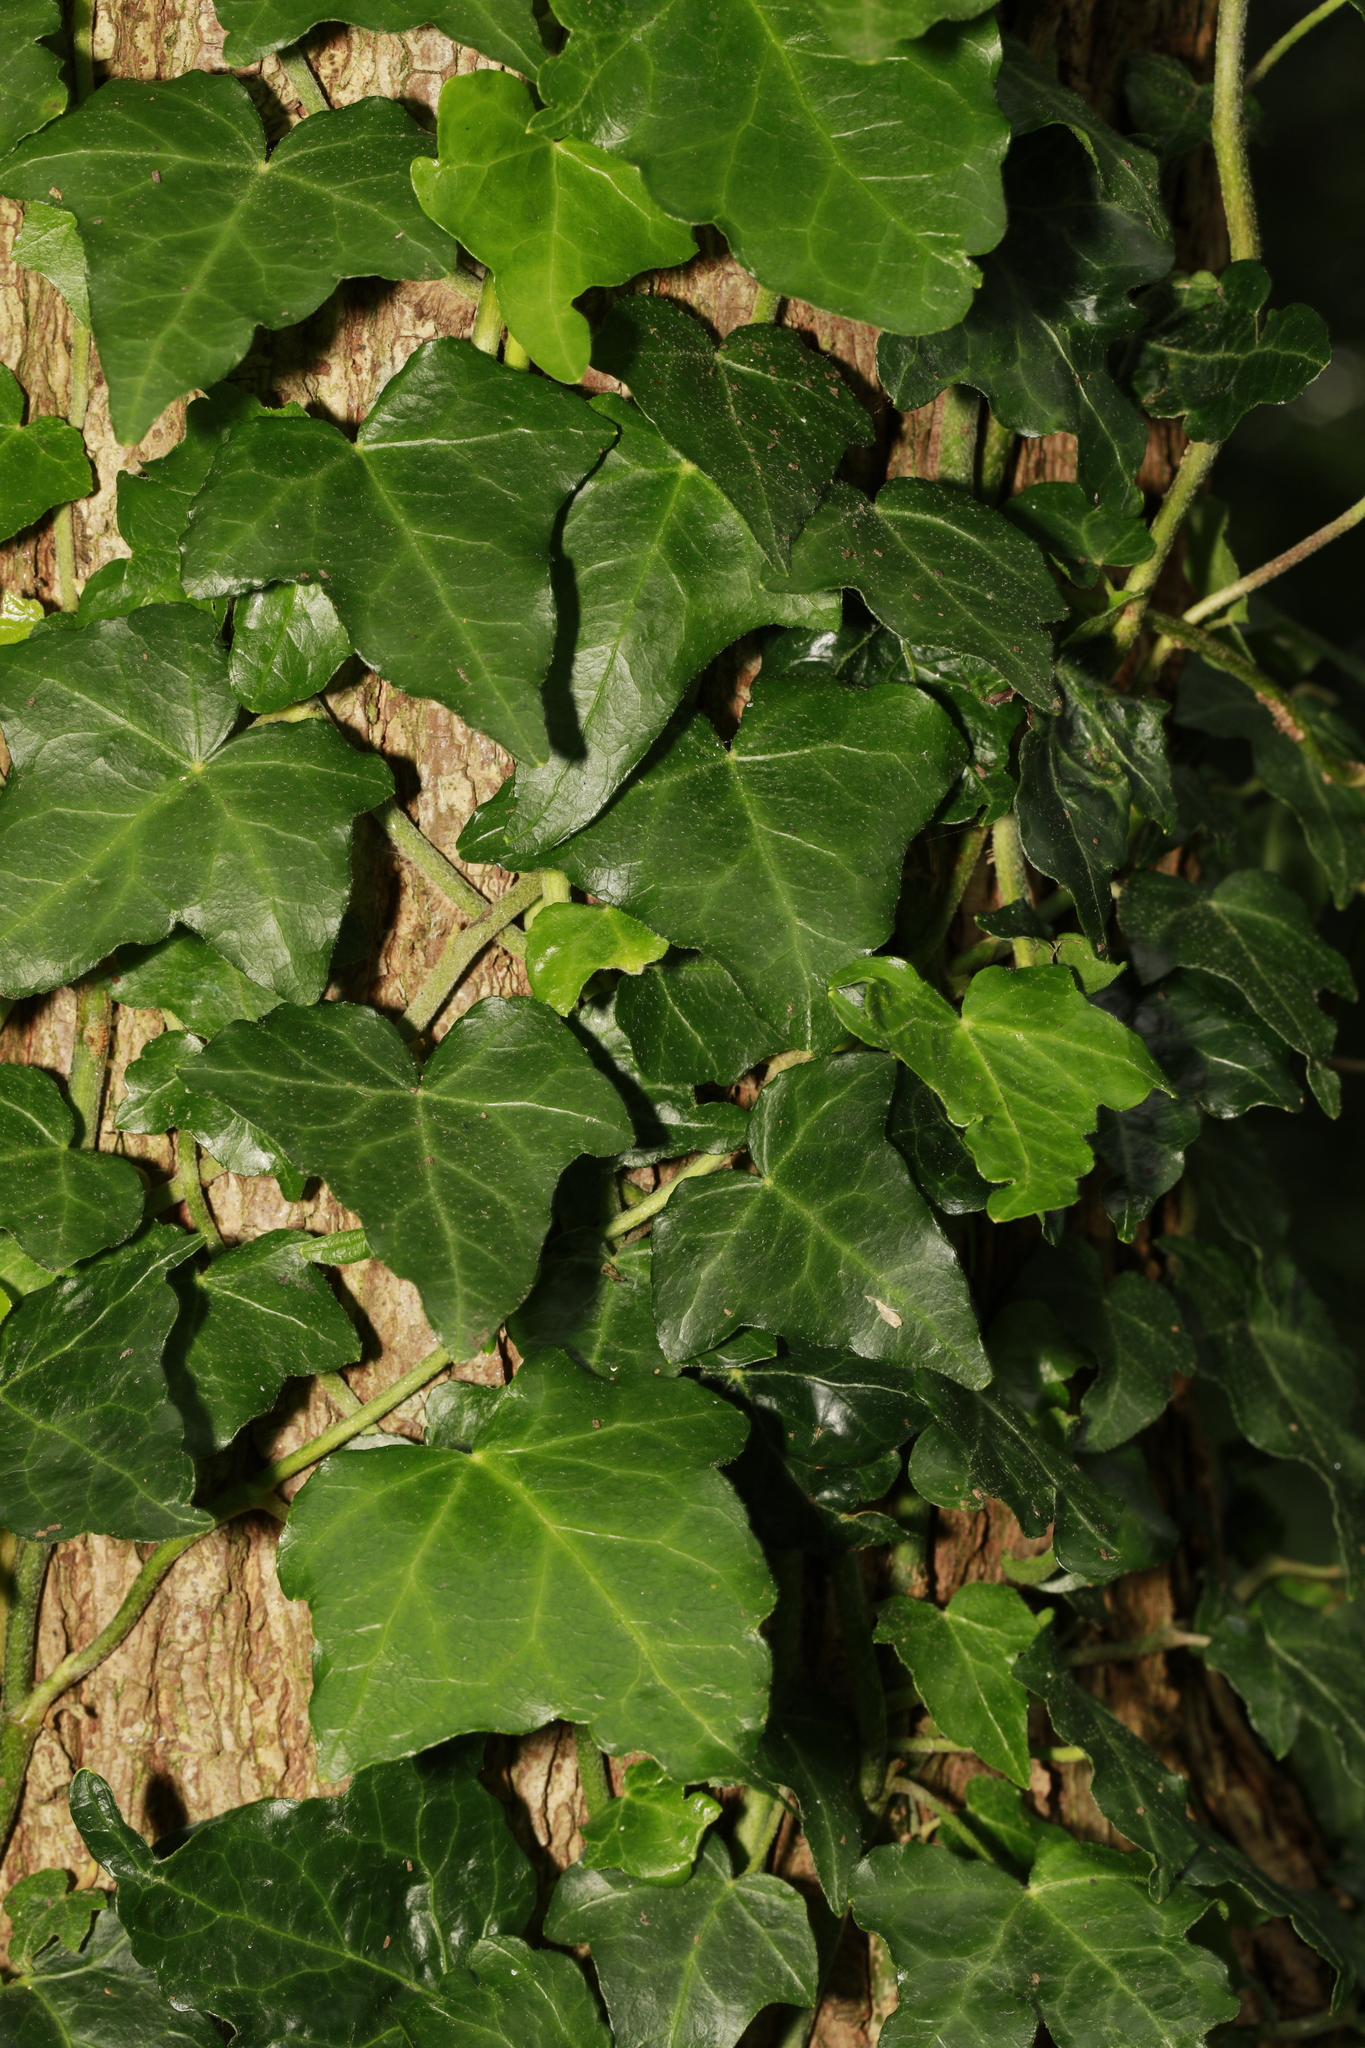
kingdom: Plantae
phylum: Tracheophyta
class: Magnoliopsida
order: Apiales
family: Araliaceae
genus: Hedera
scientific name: Hedera helix
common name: Ivy
